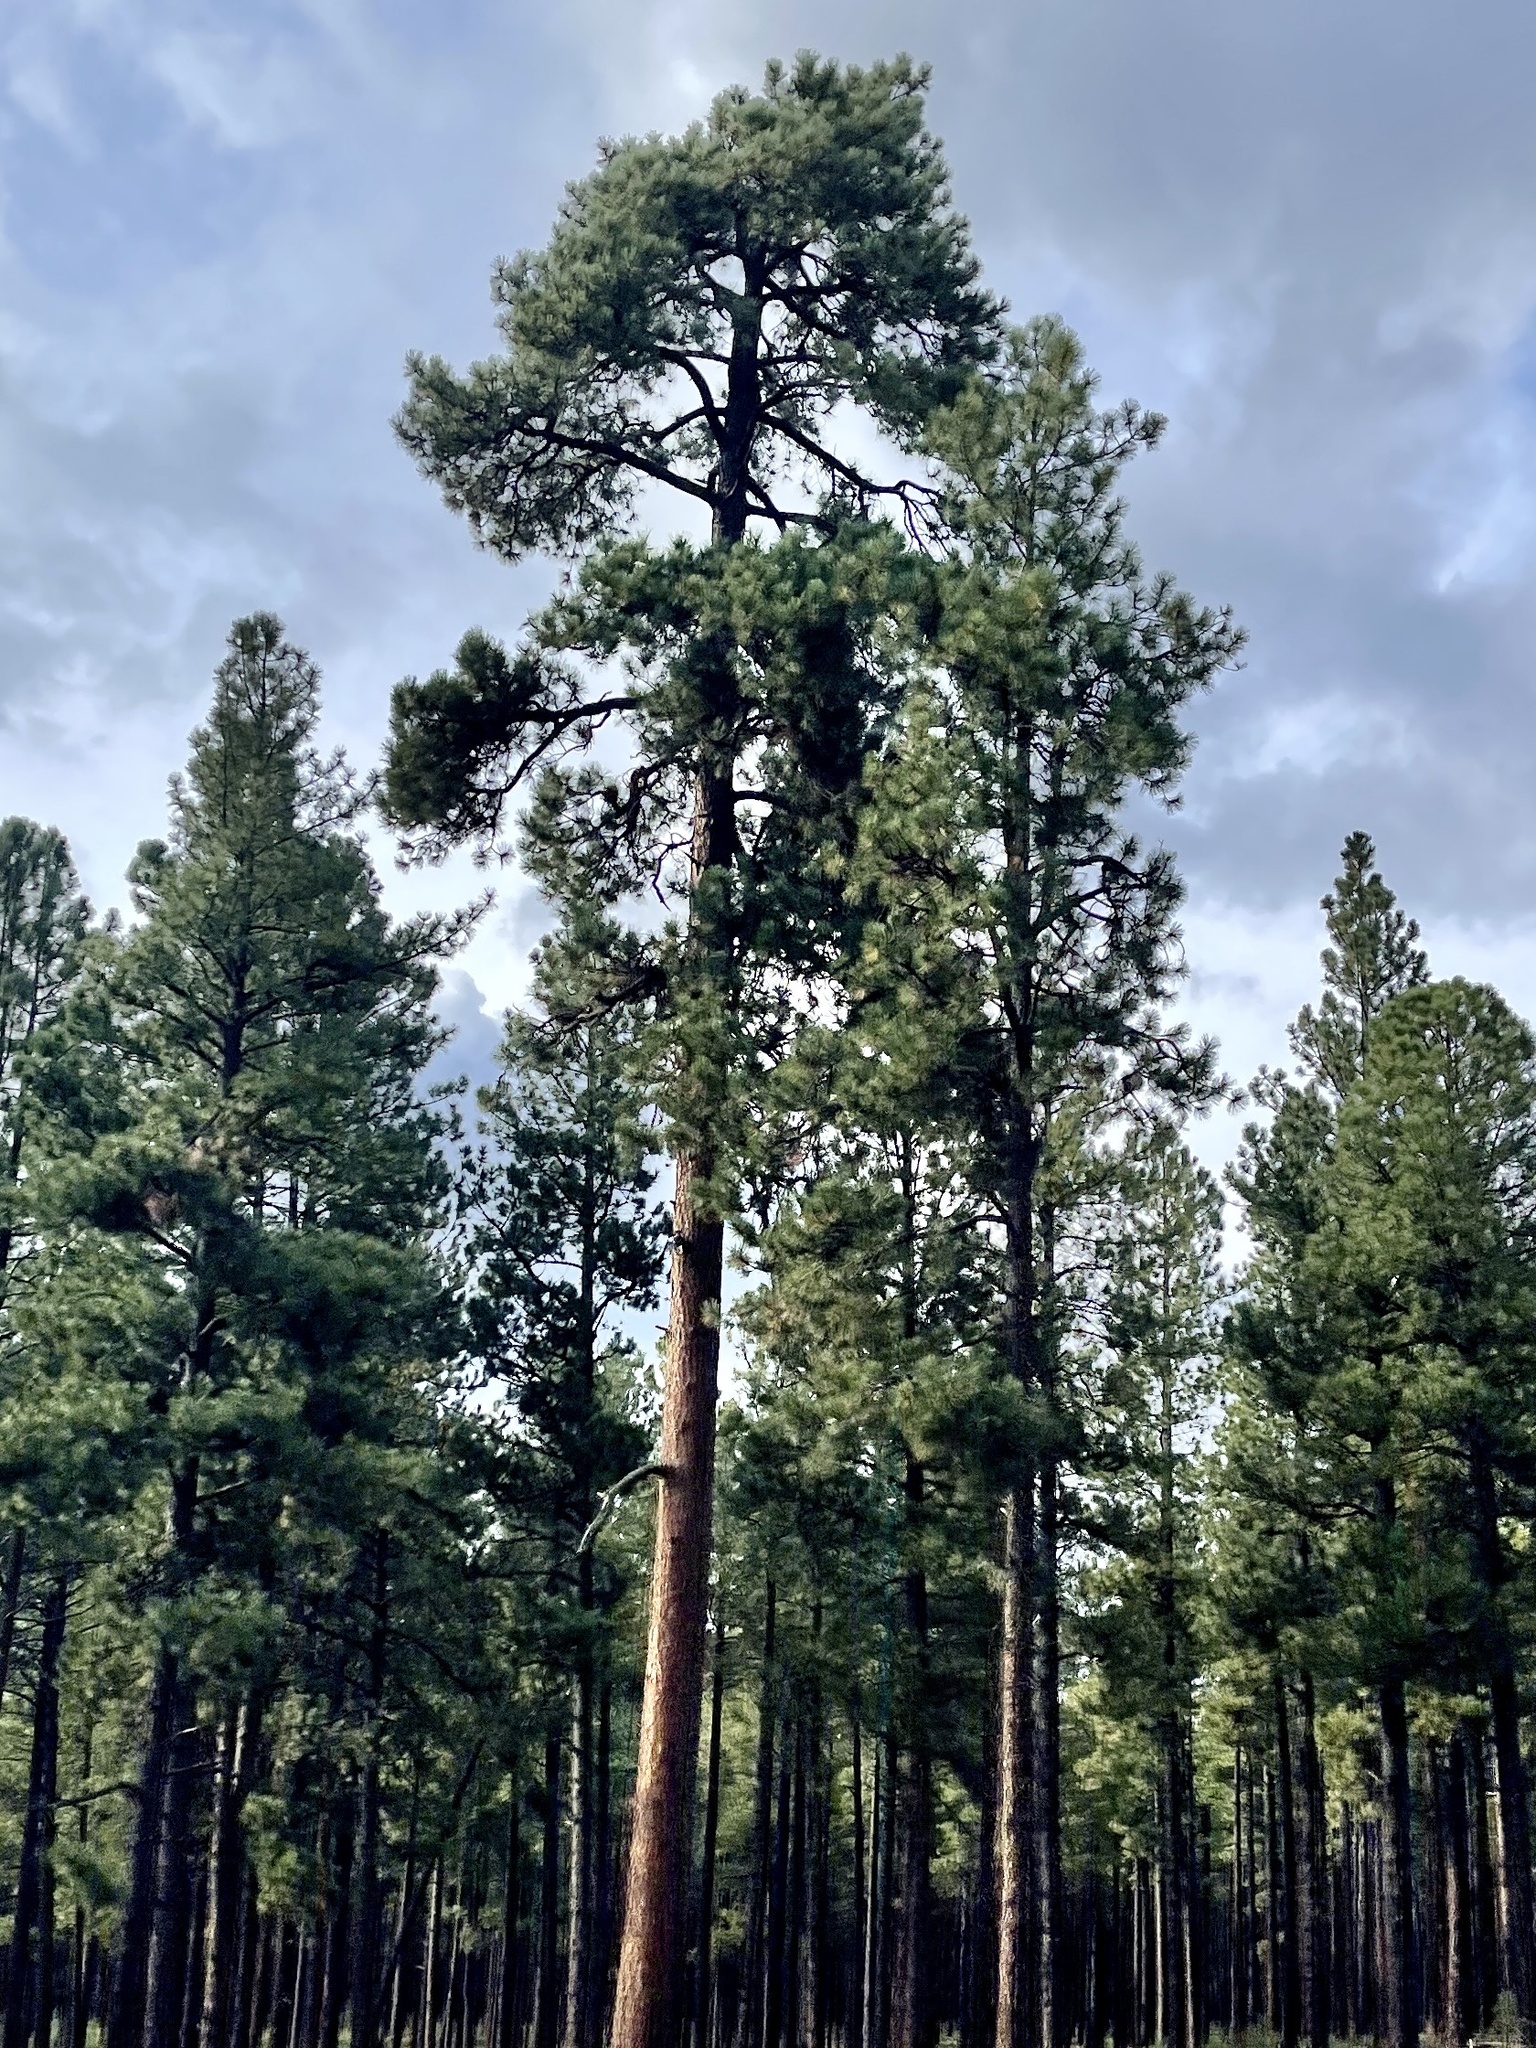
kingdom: Plantae
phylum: Tracheophyta
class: Pinopsida
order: Pinales
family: Pinaceae
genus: Pinus
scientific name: Pinus ponderosa
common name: Western yellow-pine
